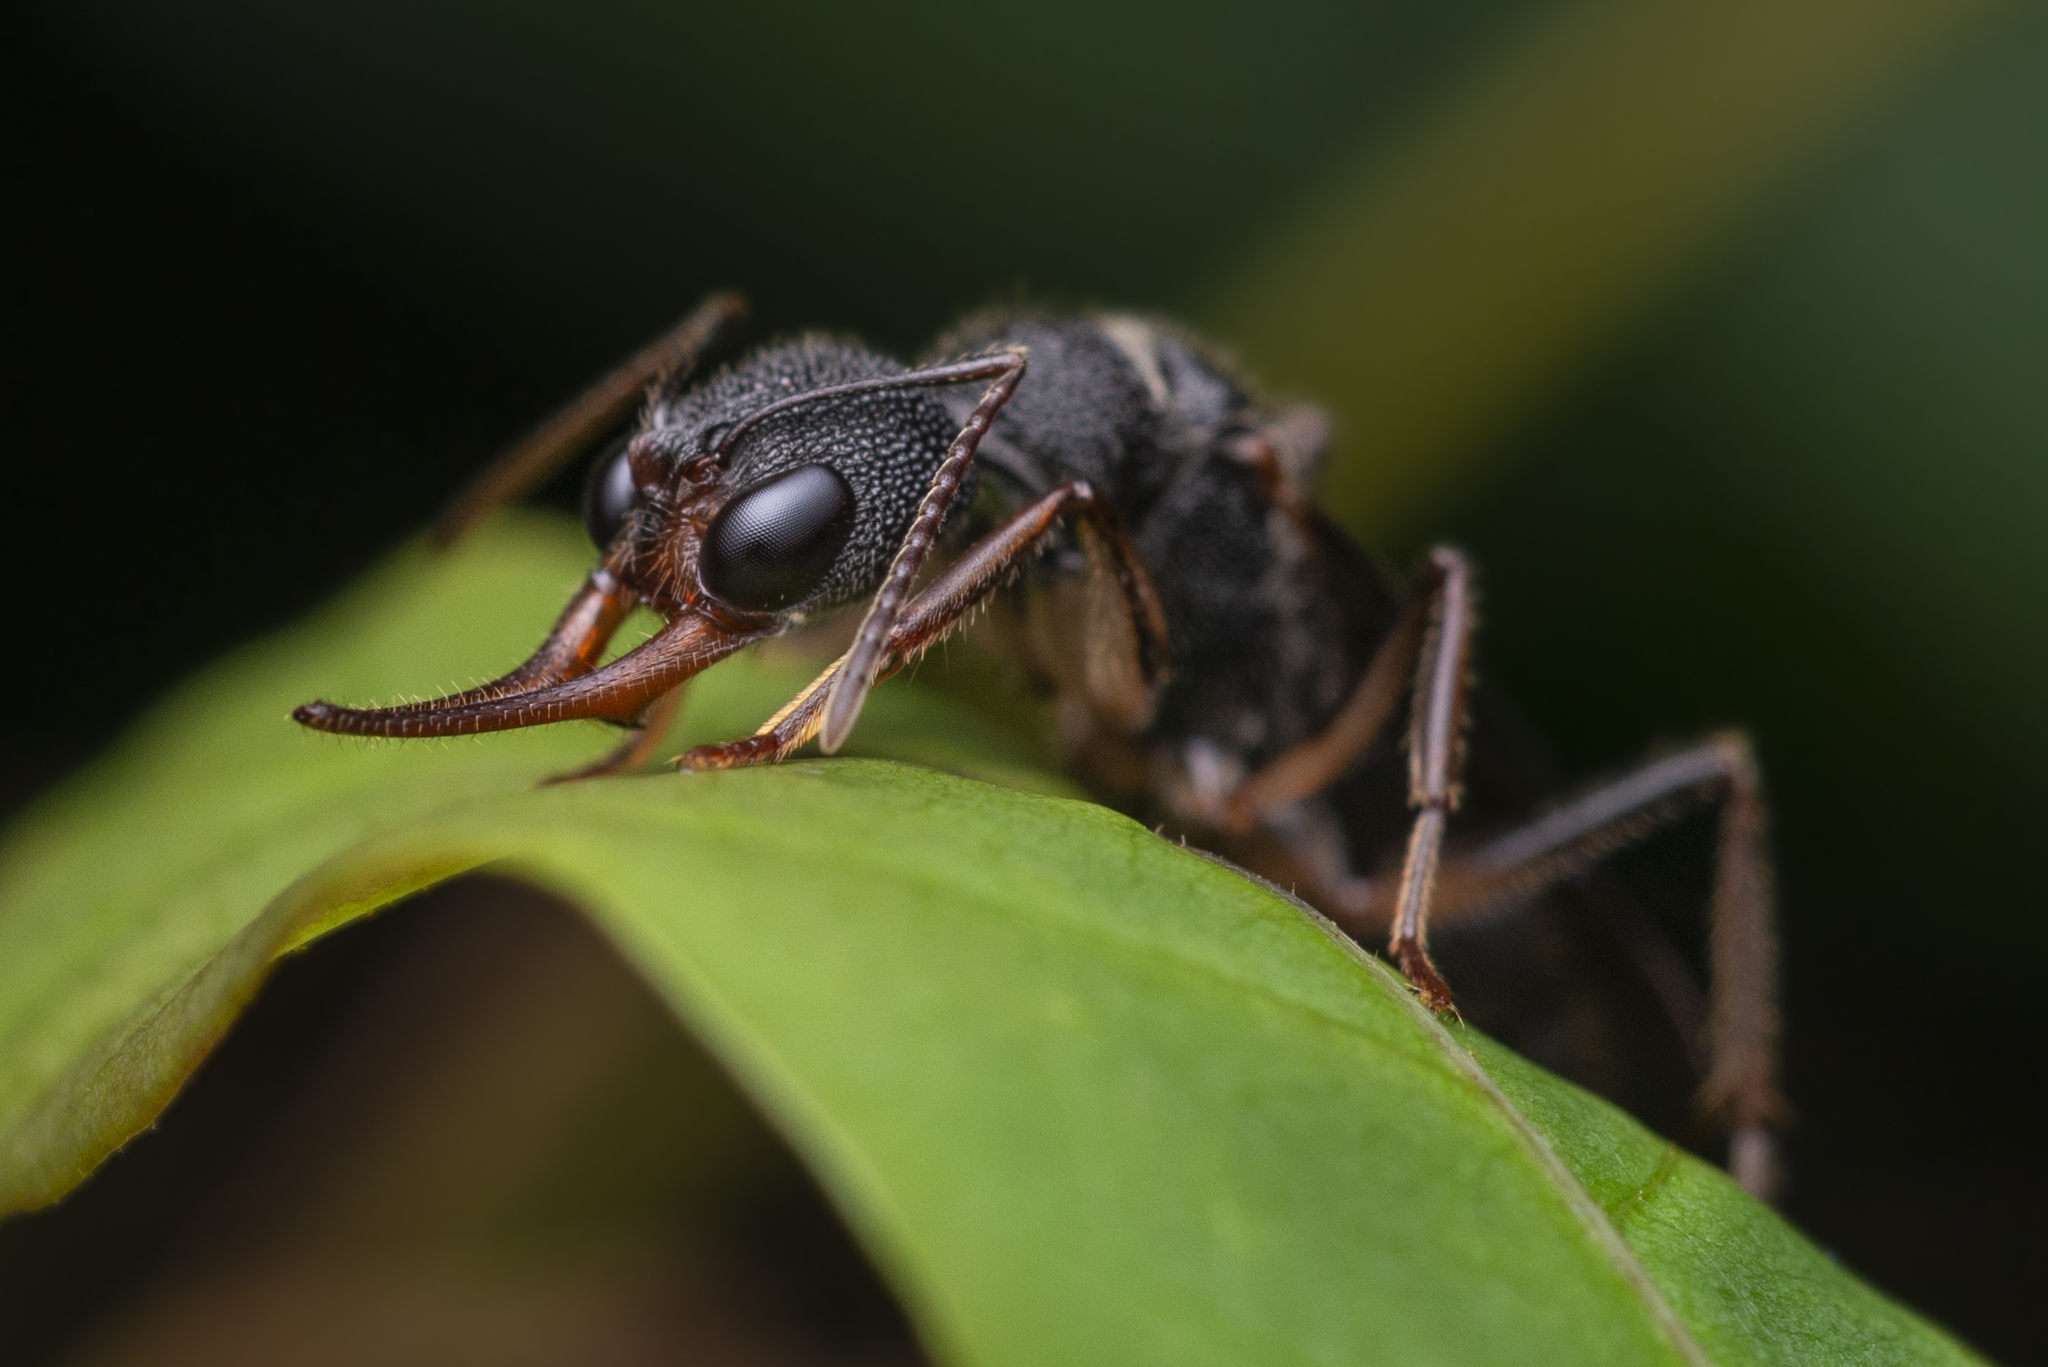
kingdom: Animalia
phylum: Arthropoda
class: Insecta
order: Hymenoptera
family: Formicidae
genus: Harpegnathos
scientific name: Harpegnathos venator
